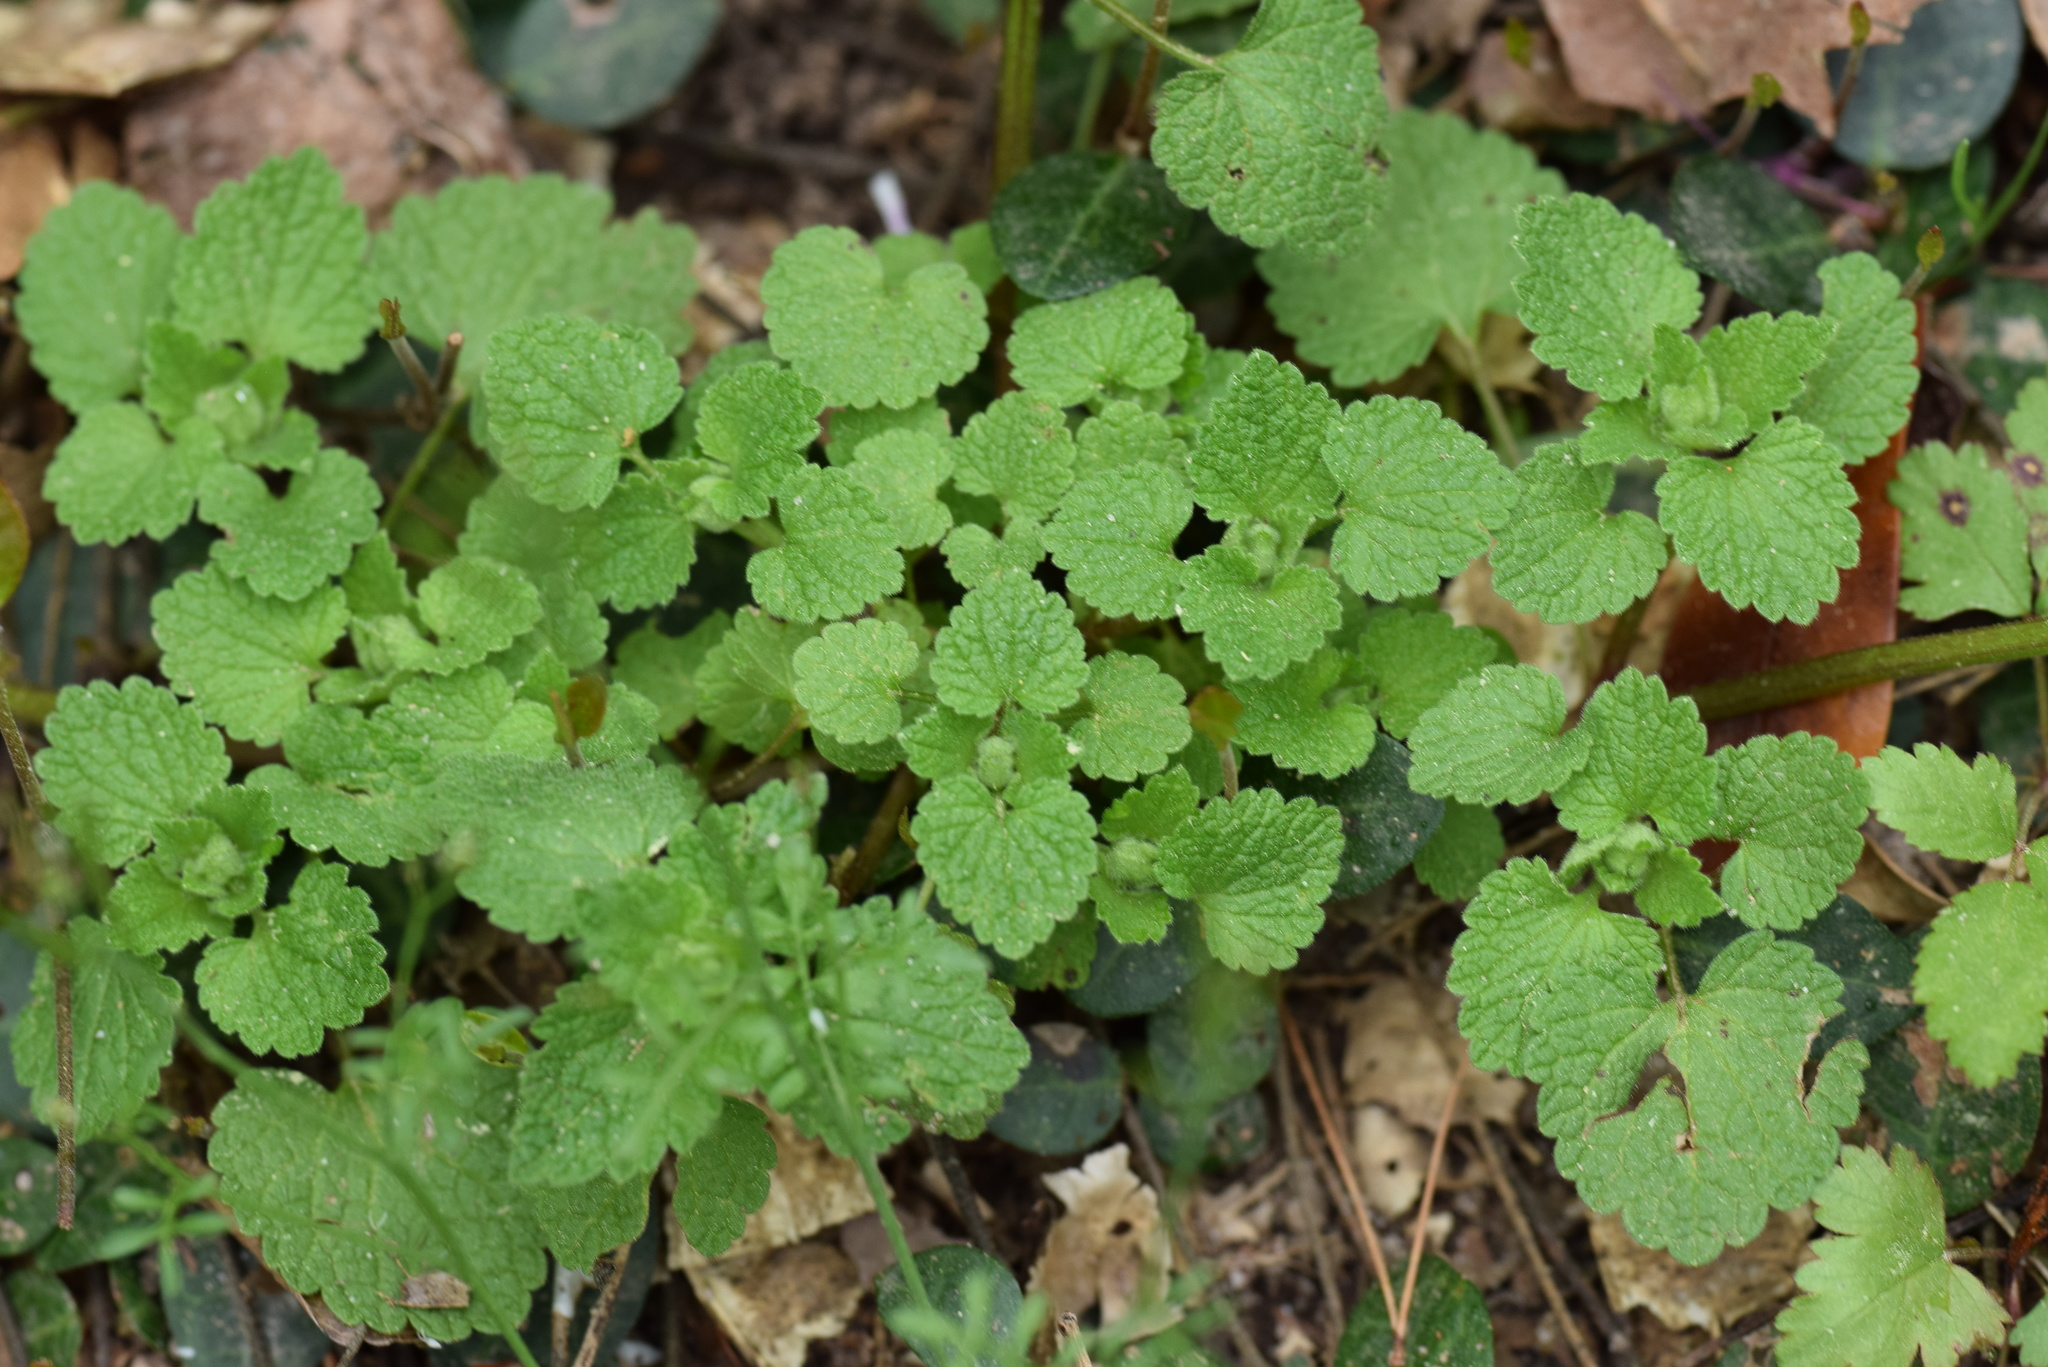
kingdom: Plantae
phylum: Tracheophyta
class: Magnoliopsida
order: Lamiales
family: Lamiaceae
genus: Lamium
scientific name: Lamium purpureum
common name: Red dead-nettle
